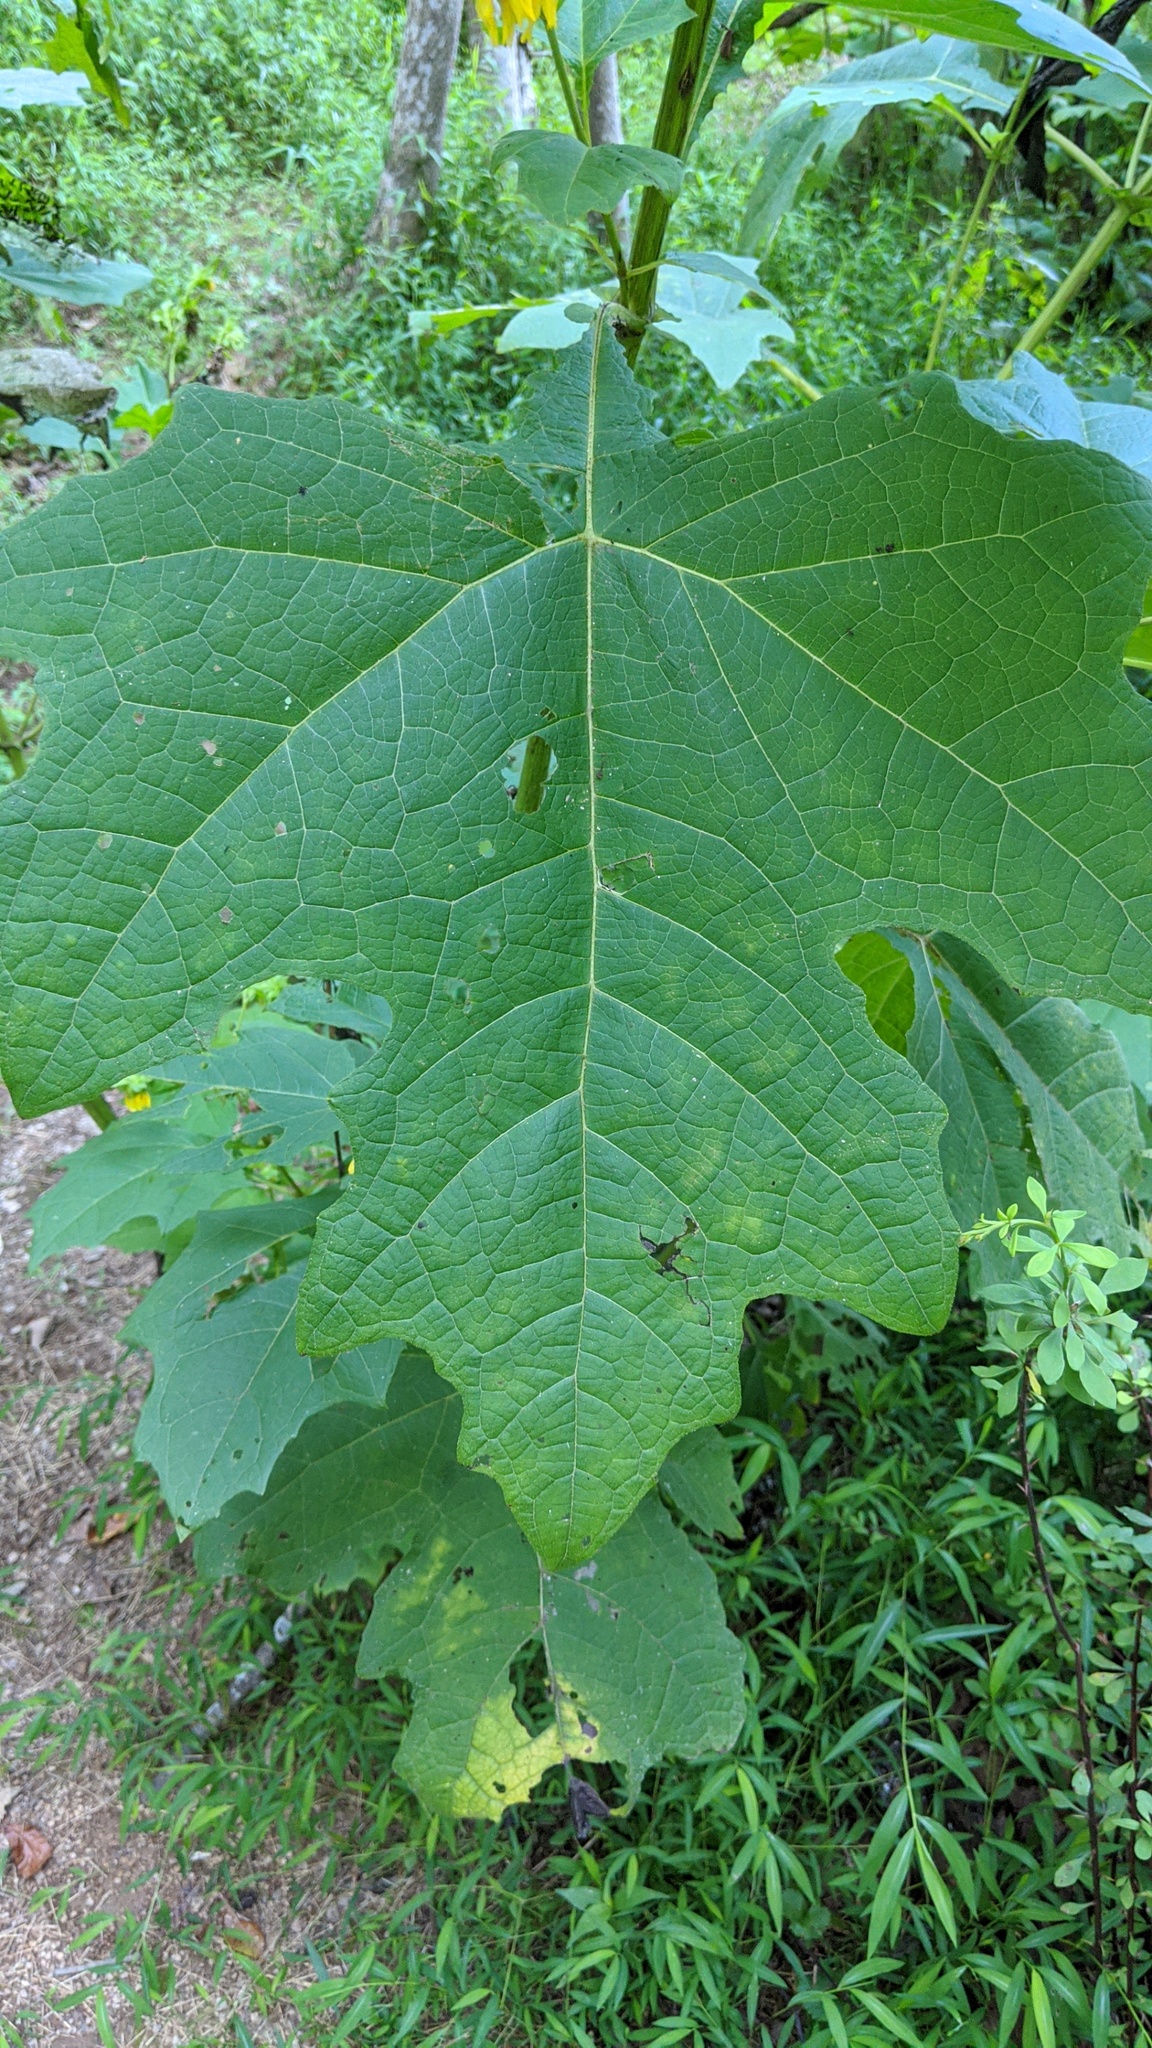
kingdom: Plantae
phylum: Tracheophyta
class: Magnoliopsida
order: Asterales
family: Asteraceae
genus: Smallanthus
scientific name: Smallanthus uvedalia
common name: Bear's-foot
